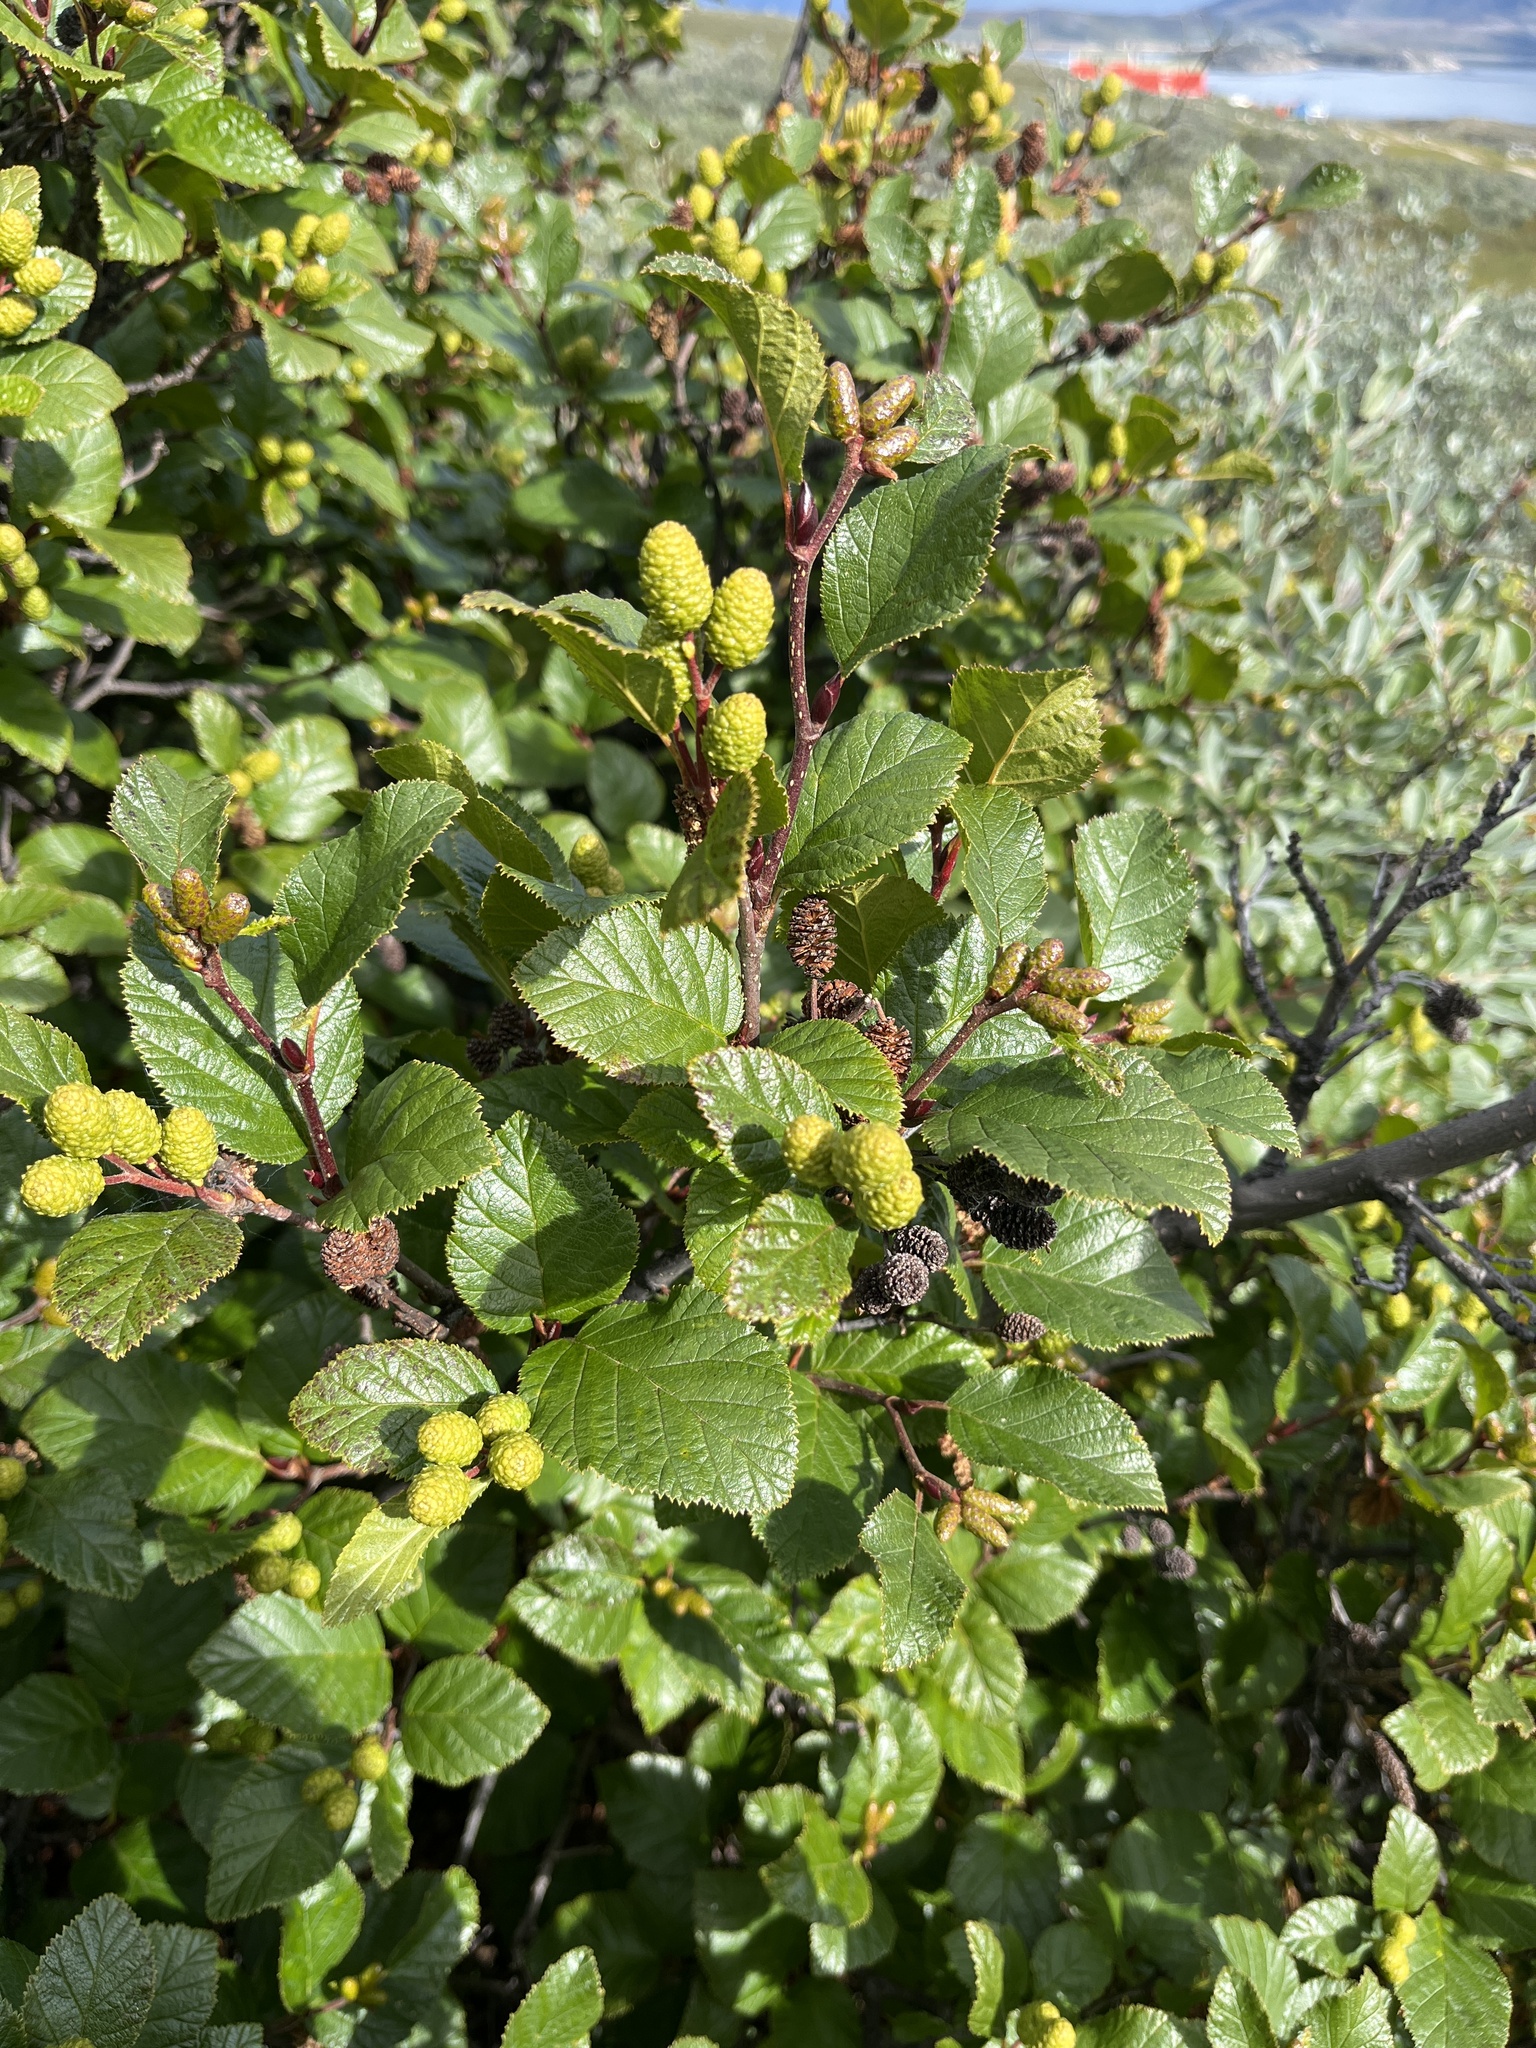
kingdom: Plantae
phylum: Tracheophyta
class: Magnoliopsida
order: Fagales
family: Betulaceae
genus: Alnus
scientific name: Alnus alnobetula
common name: Green alder
